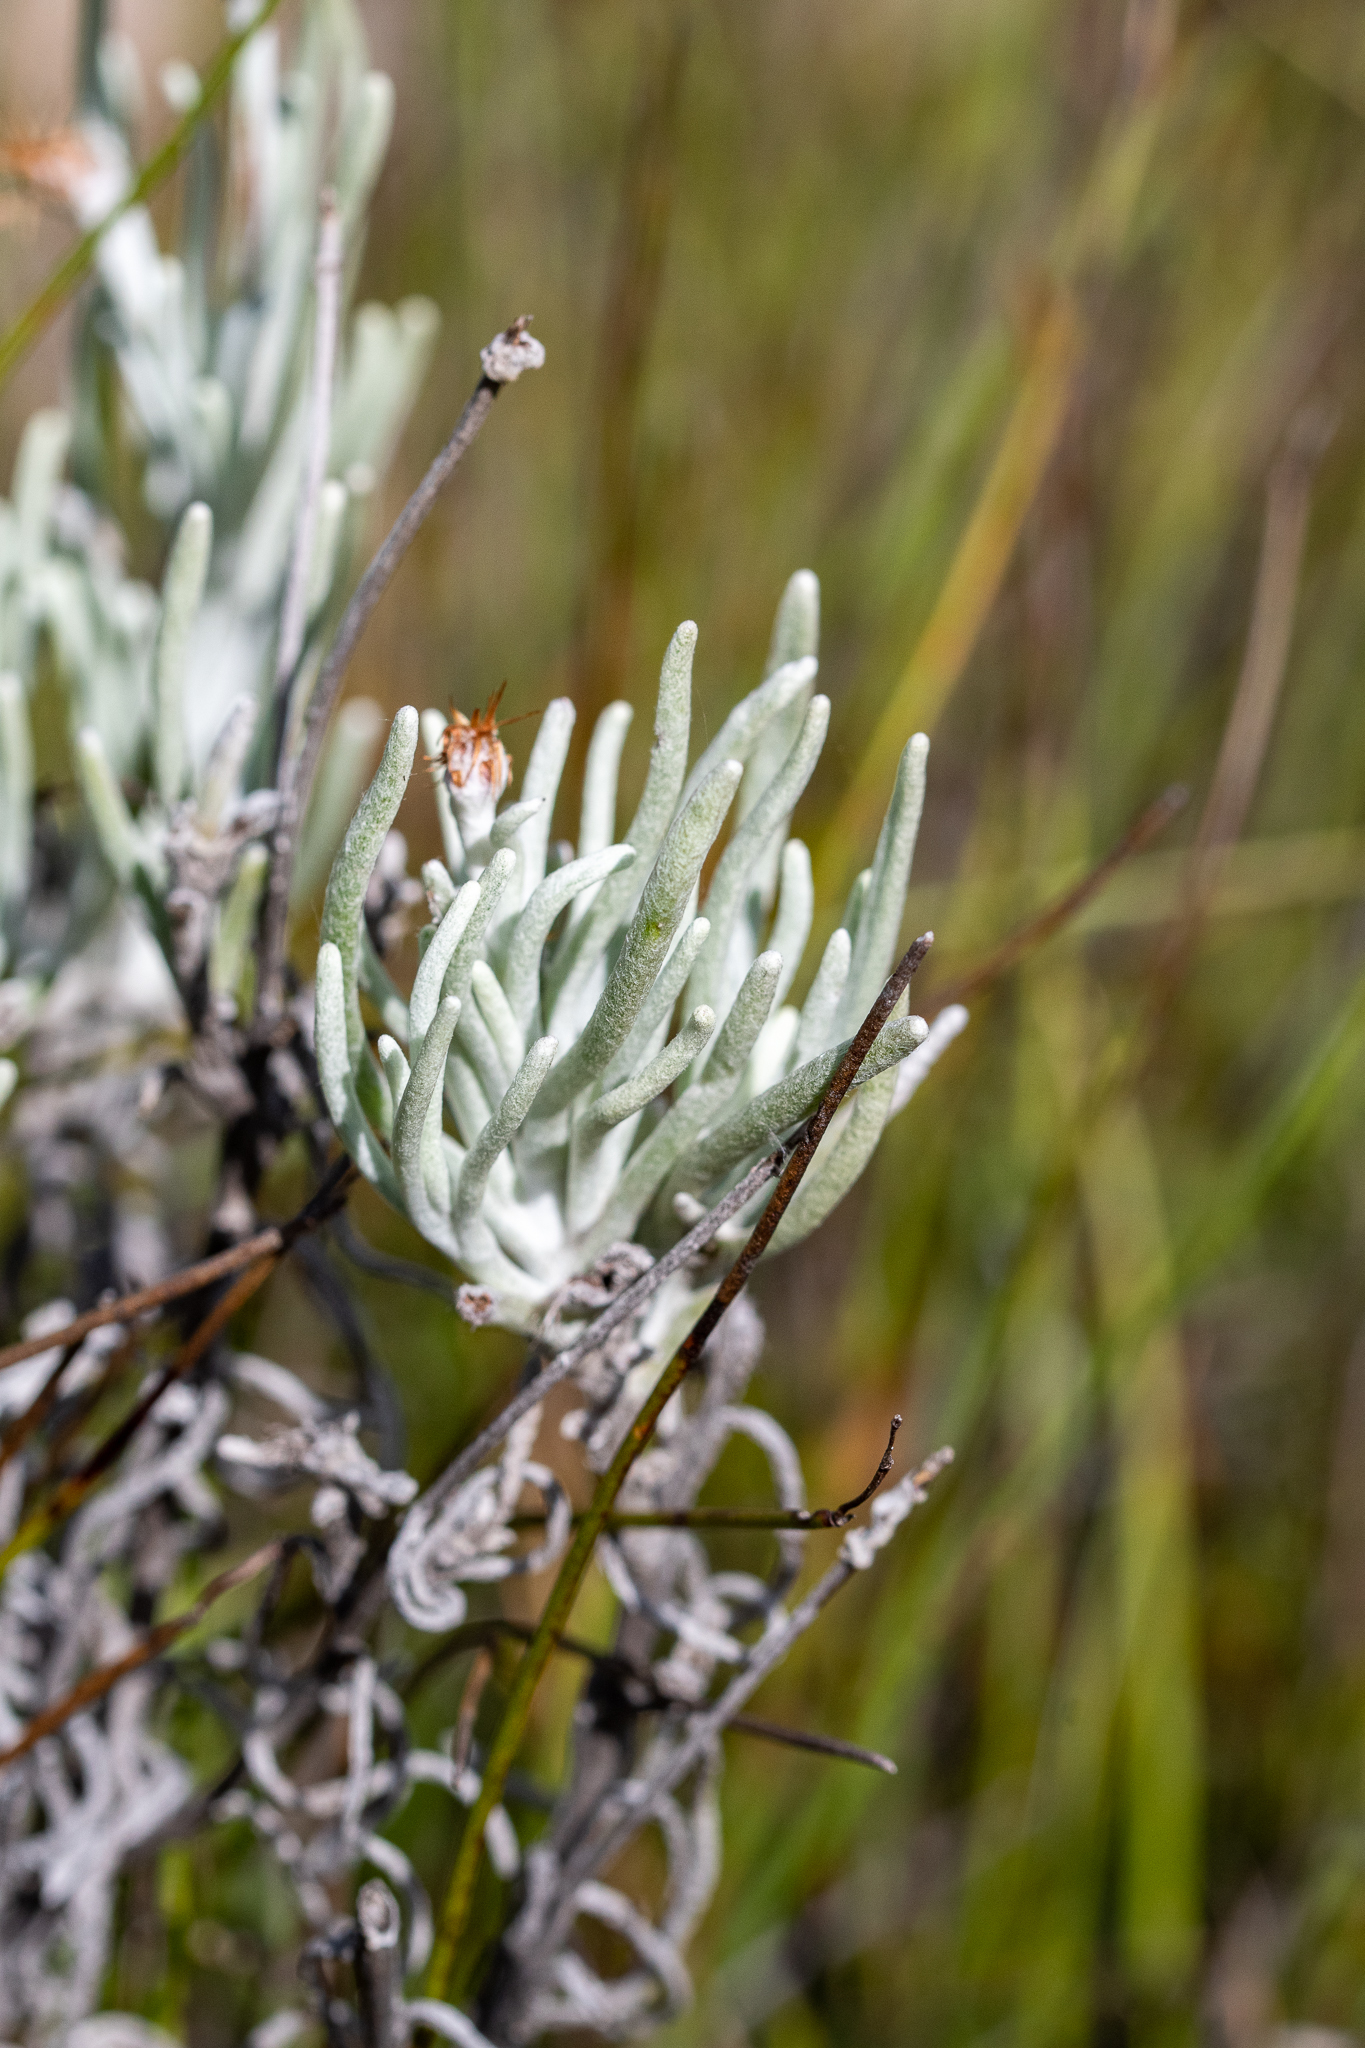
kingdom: Plantae
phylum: Tracheophyta
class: Magnoliopsida
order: Asterales
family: Asteraceae
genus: Syncarpha
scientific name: Syncarpha gnaphaloides
